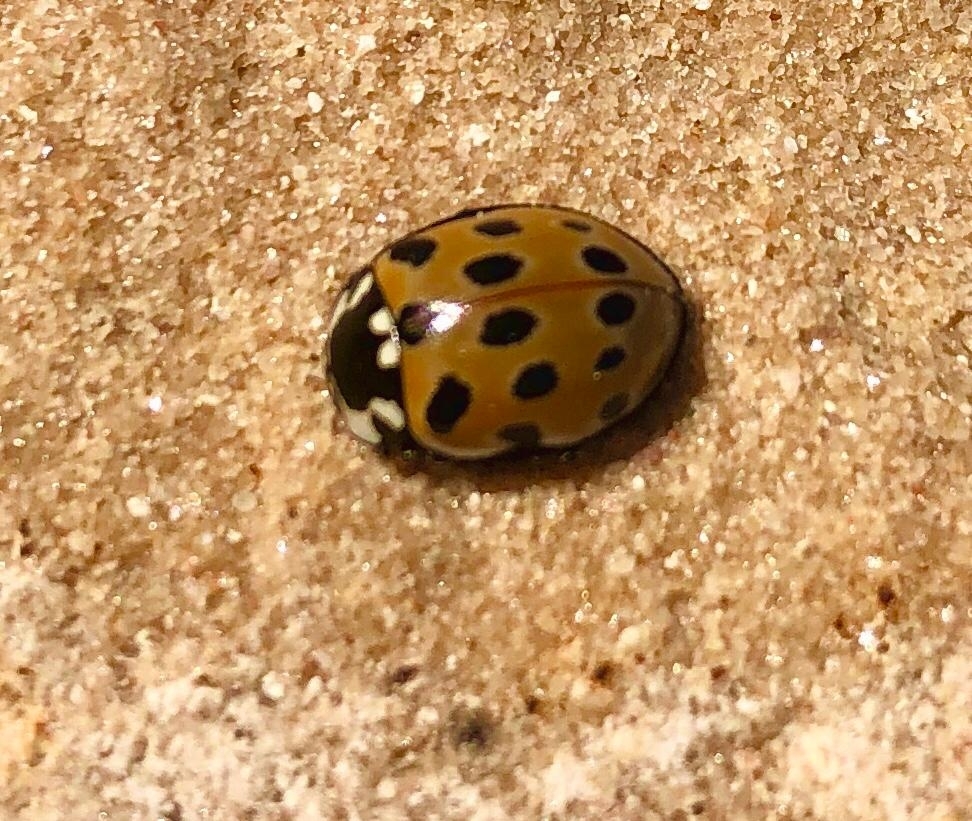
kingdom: Animalia
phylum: Arthropoda
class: Insecta
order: Coleoptera
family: Coccinellidae
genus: Anatis
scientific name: Anatis ocellata
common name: Eyed ladybird
